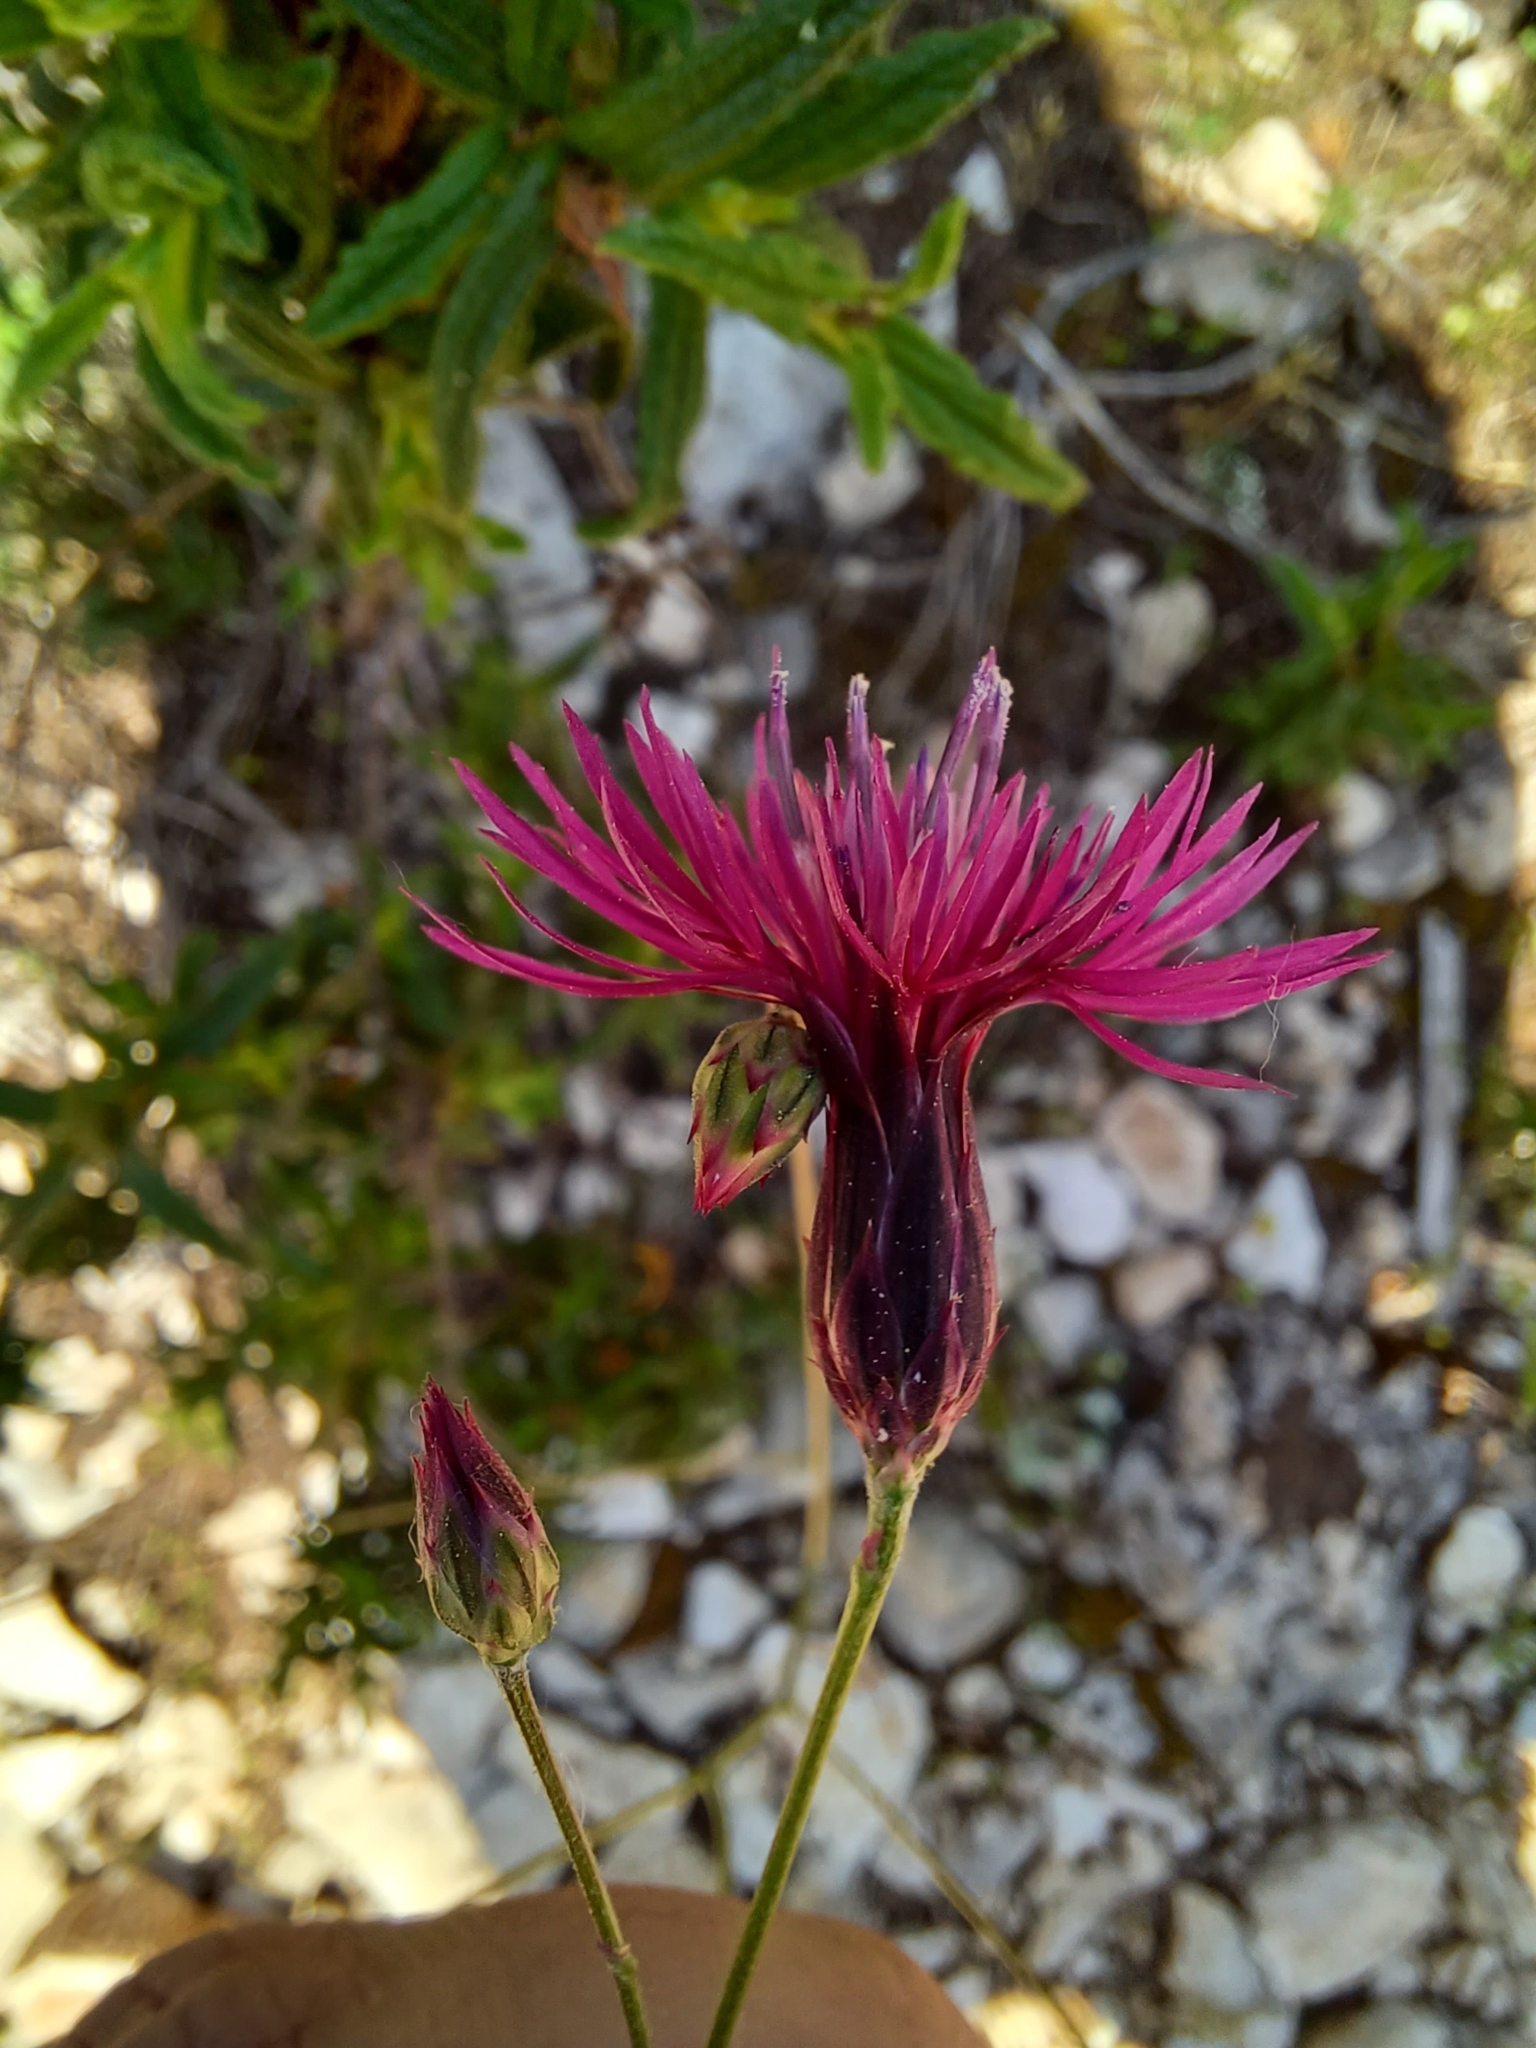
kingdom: Plantae
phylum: Tracheophyta
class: Magnoliopsida
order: Asterales
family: Asteraceae
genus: Crupina
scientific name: Crupina crupinastrum
